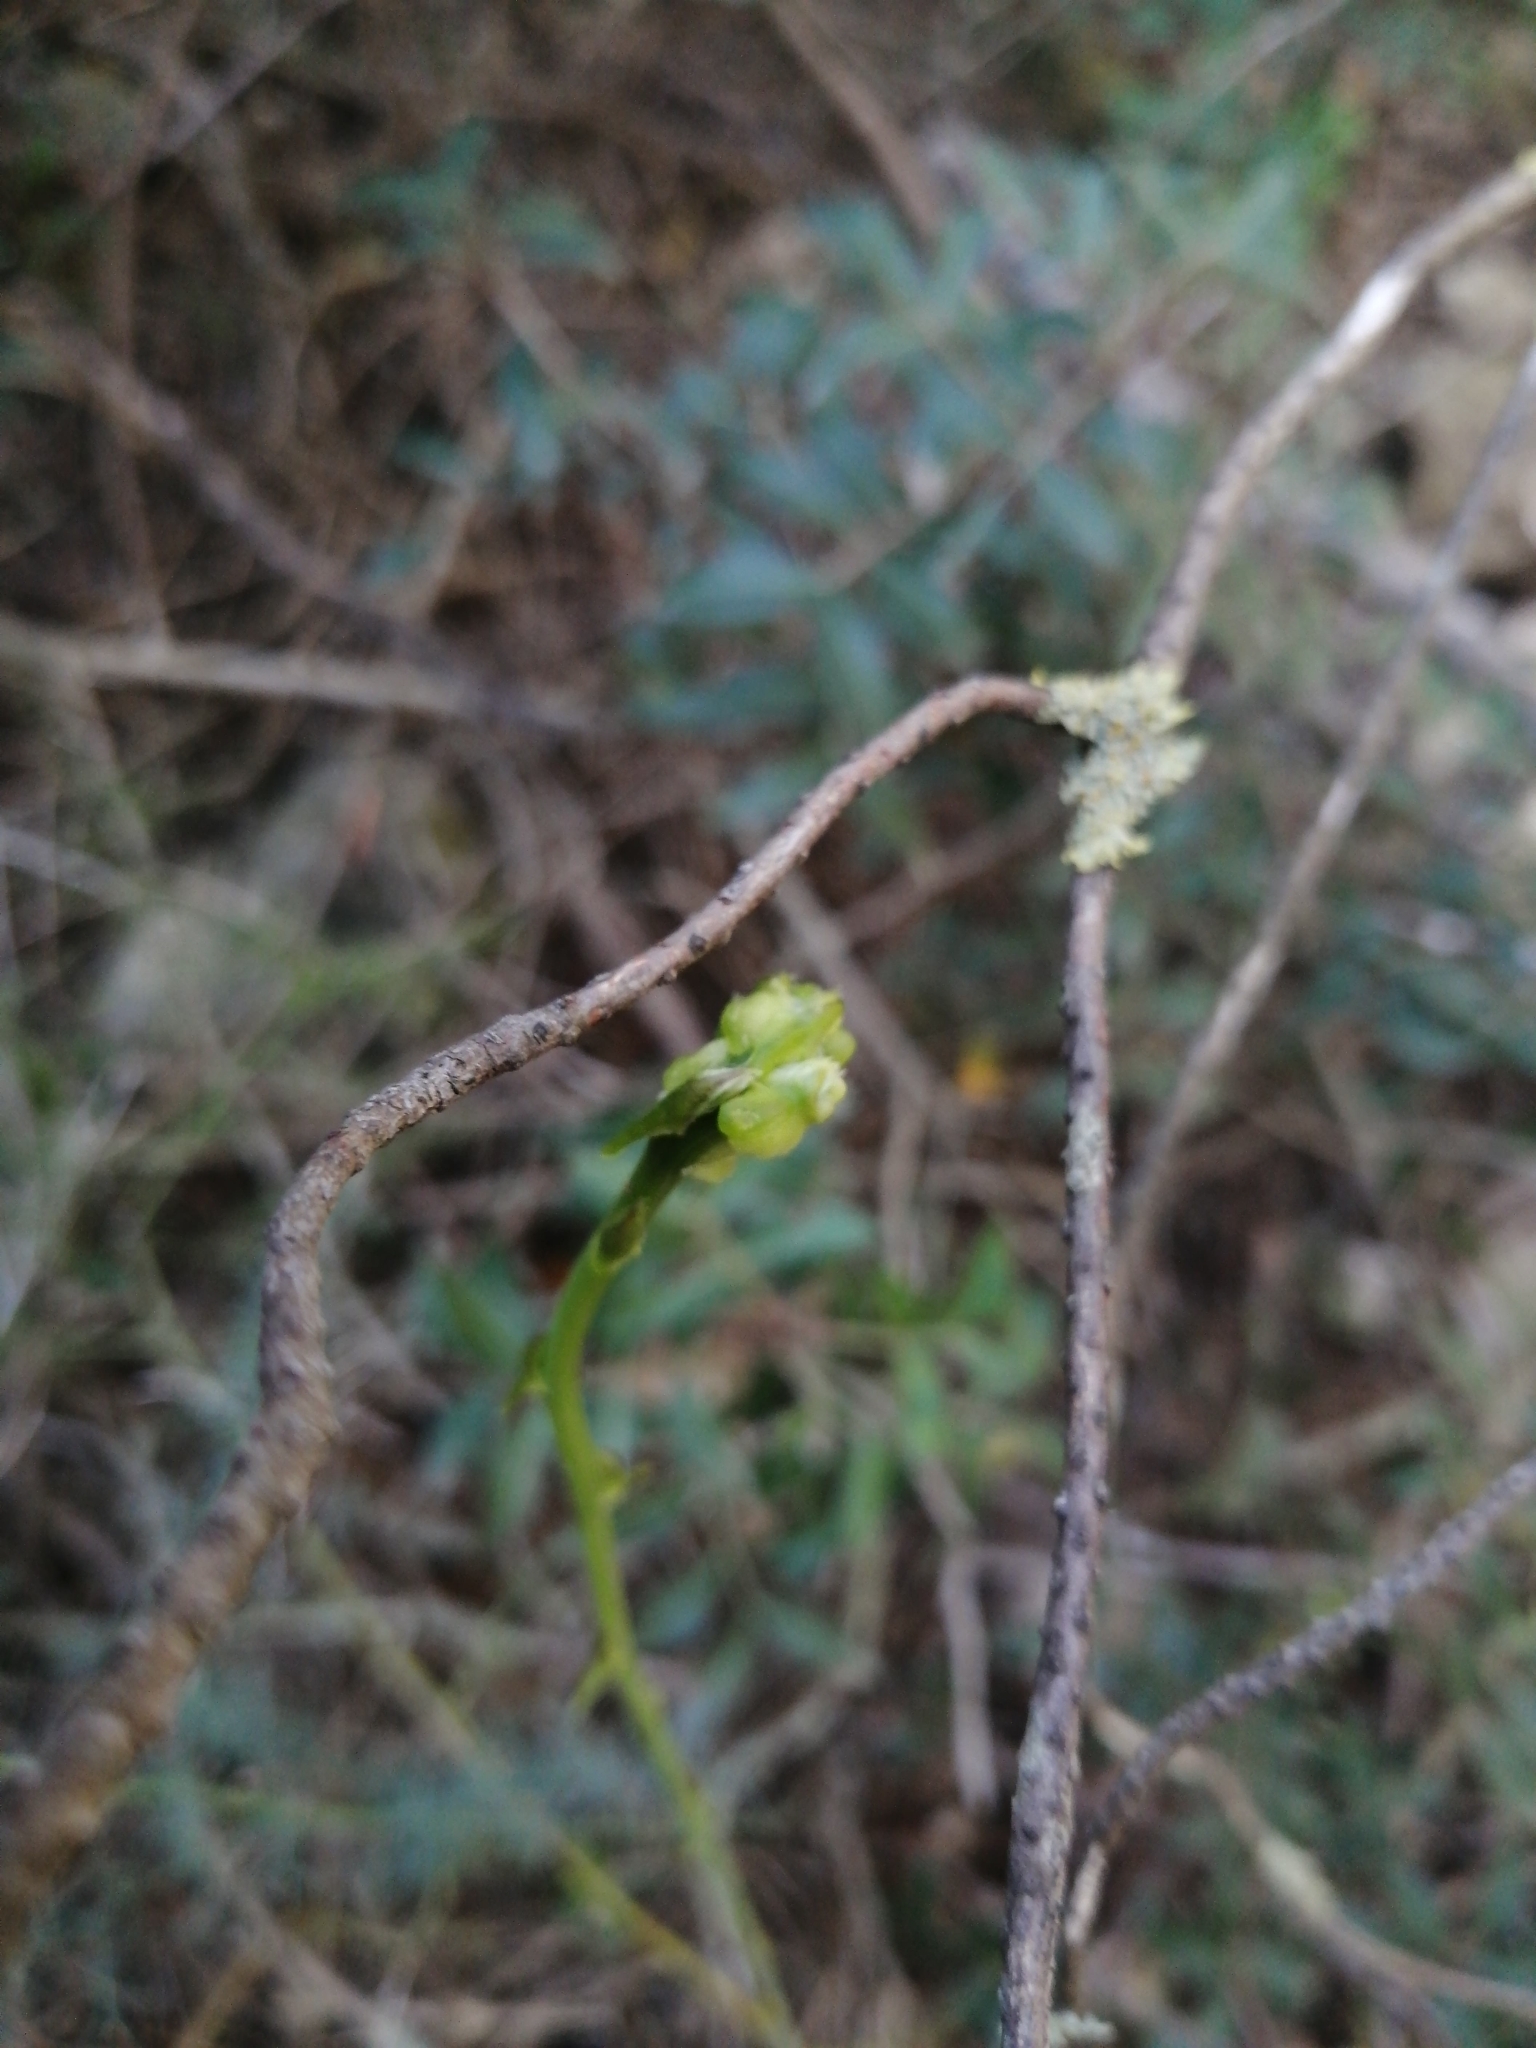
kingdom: Plantae
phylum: Tracheophyta
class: Liliopsida
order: Asparagales
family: Asparagaceae
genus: Asparagus
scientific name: Asparagus aphyllus
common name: Mediterranean asparagus
